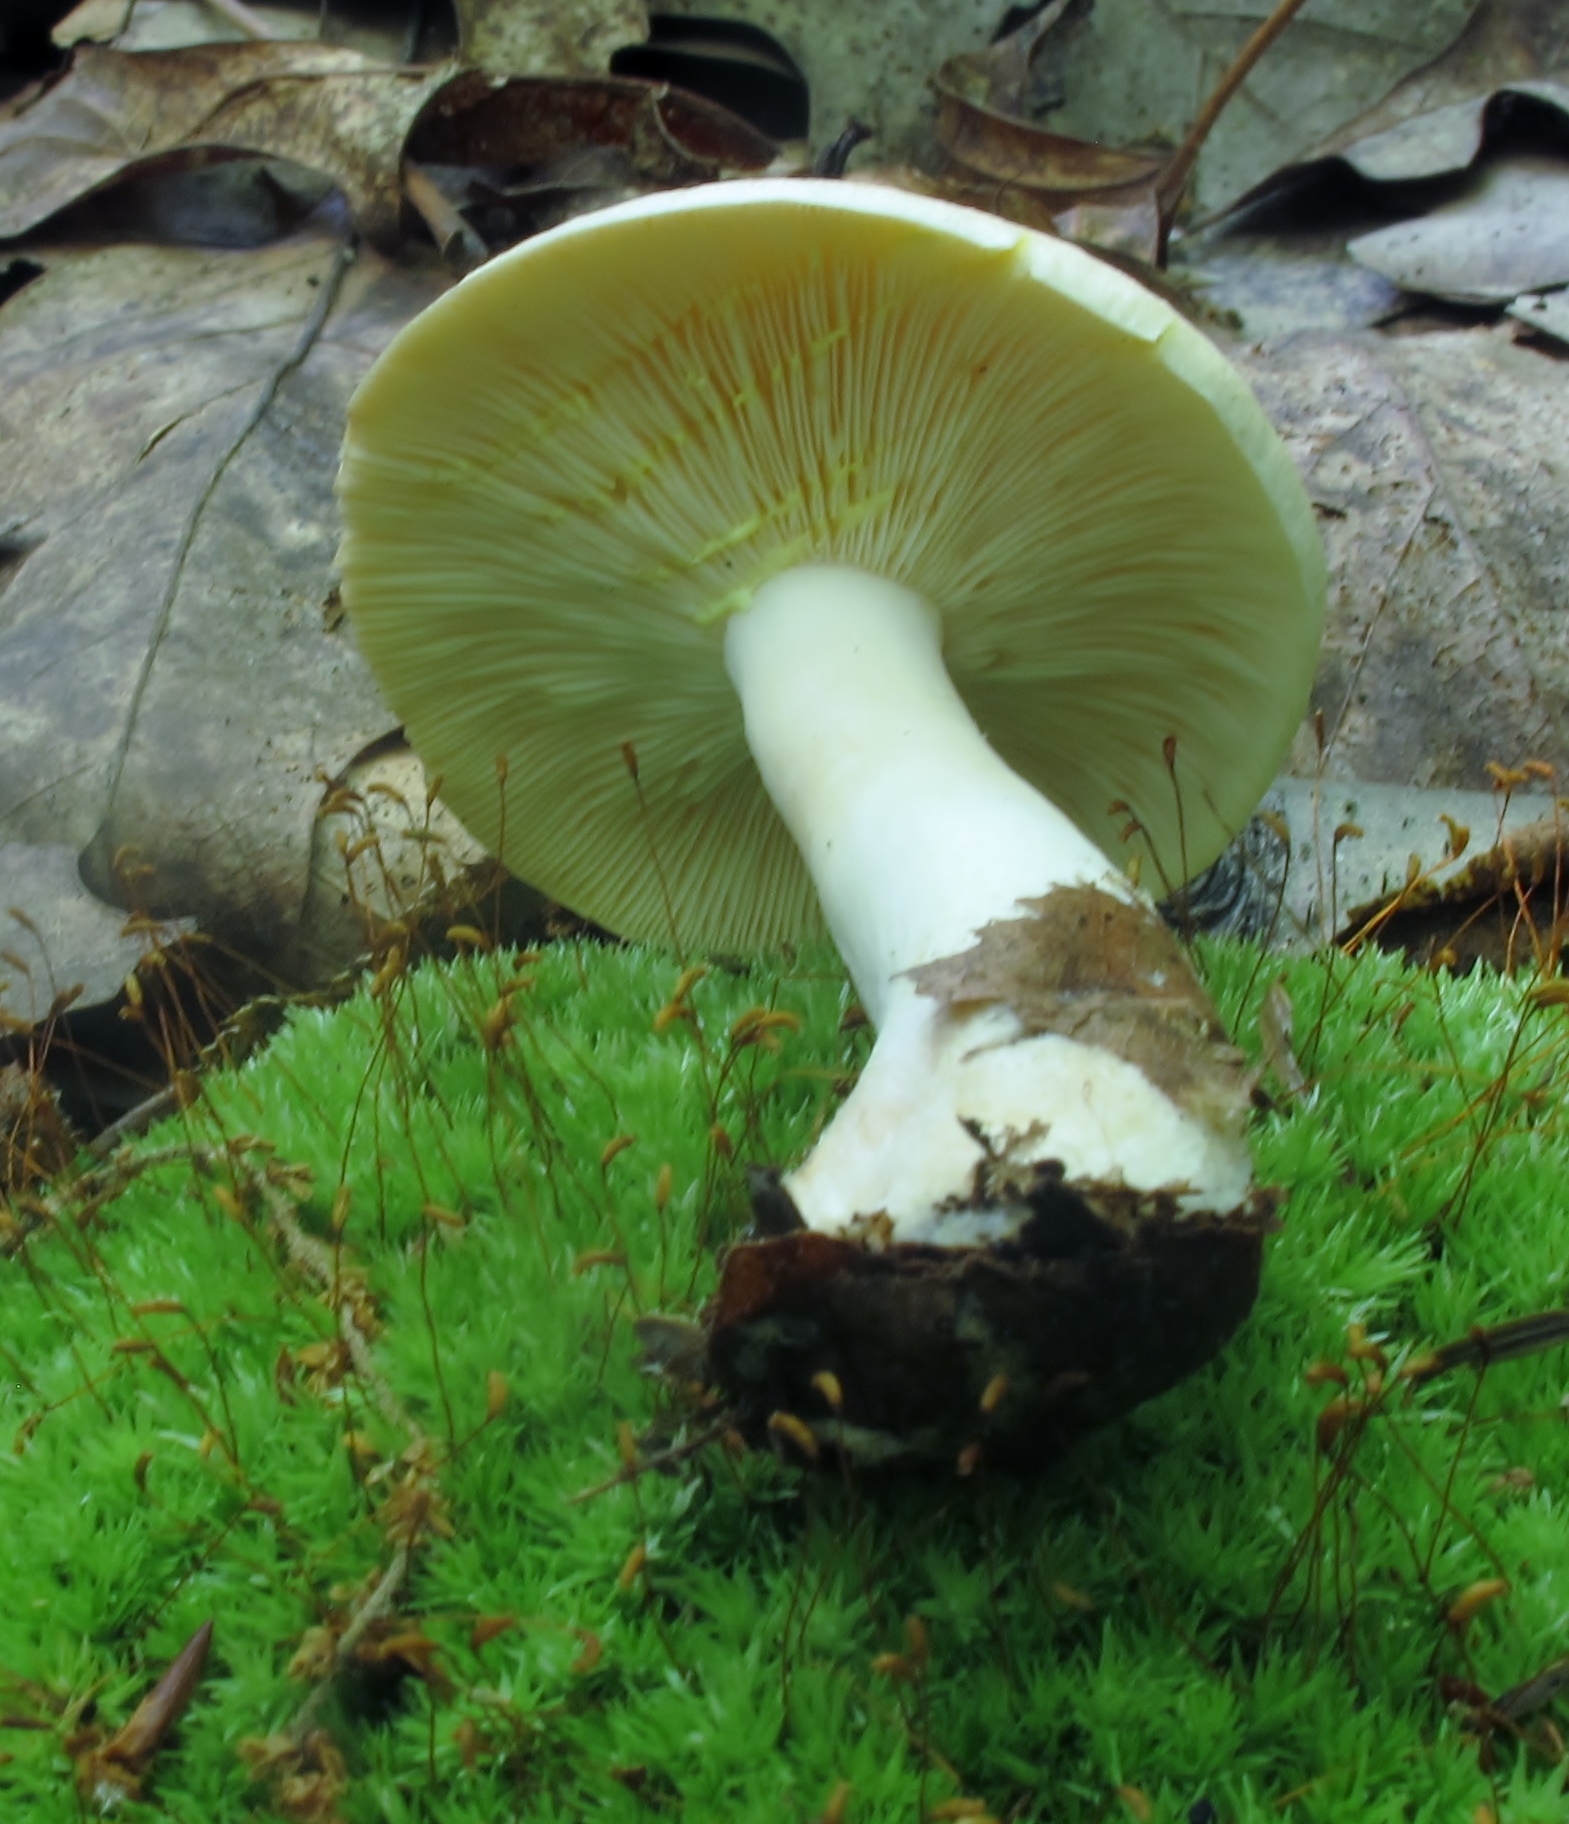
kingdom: Fungi
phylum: Basidiomycota
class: Agaricomycetes
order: Russulales
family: Russulaceae
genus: Lactarius
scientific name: Lactarius chrysorrheus
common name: Yellowdrop milkcap
